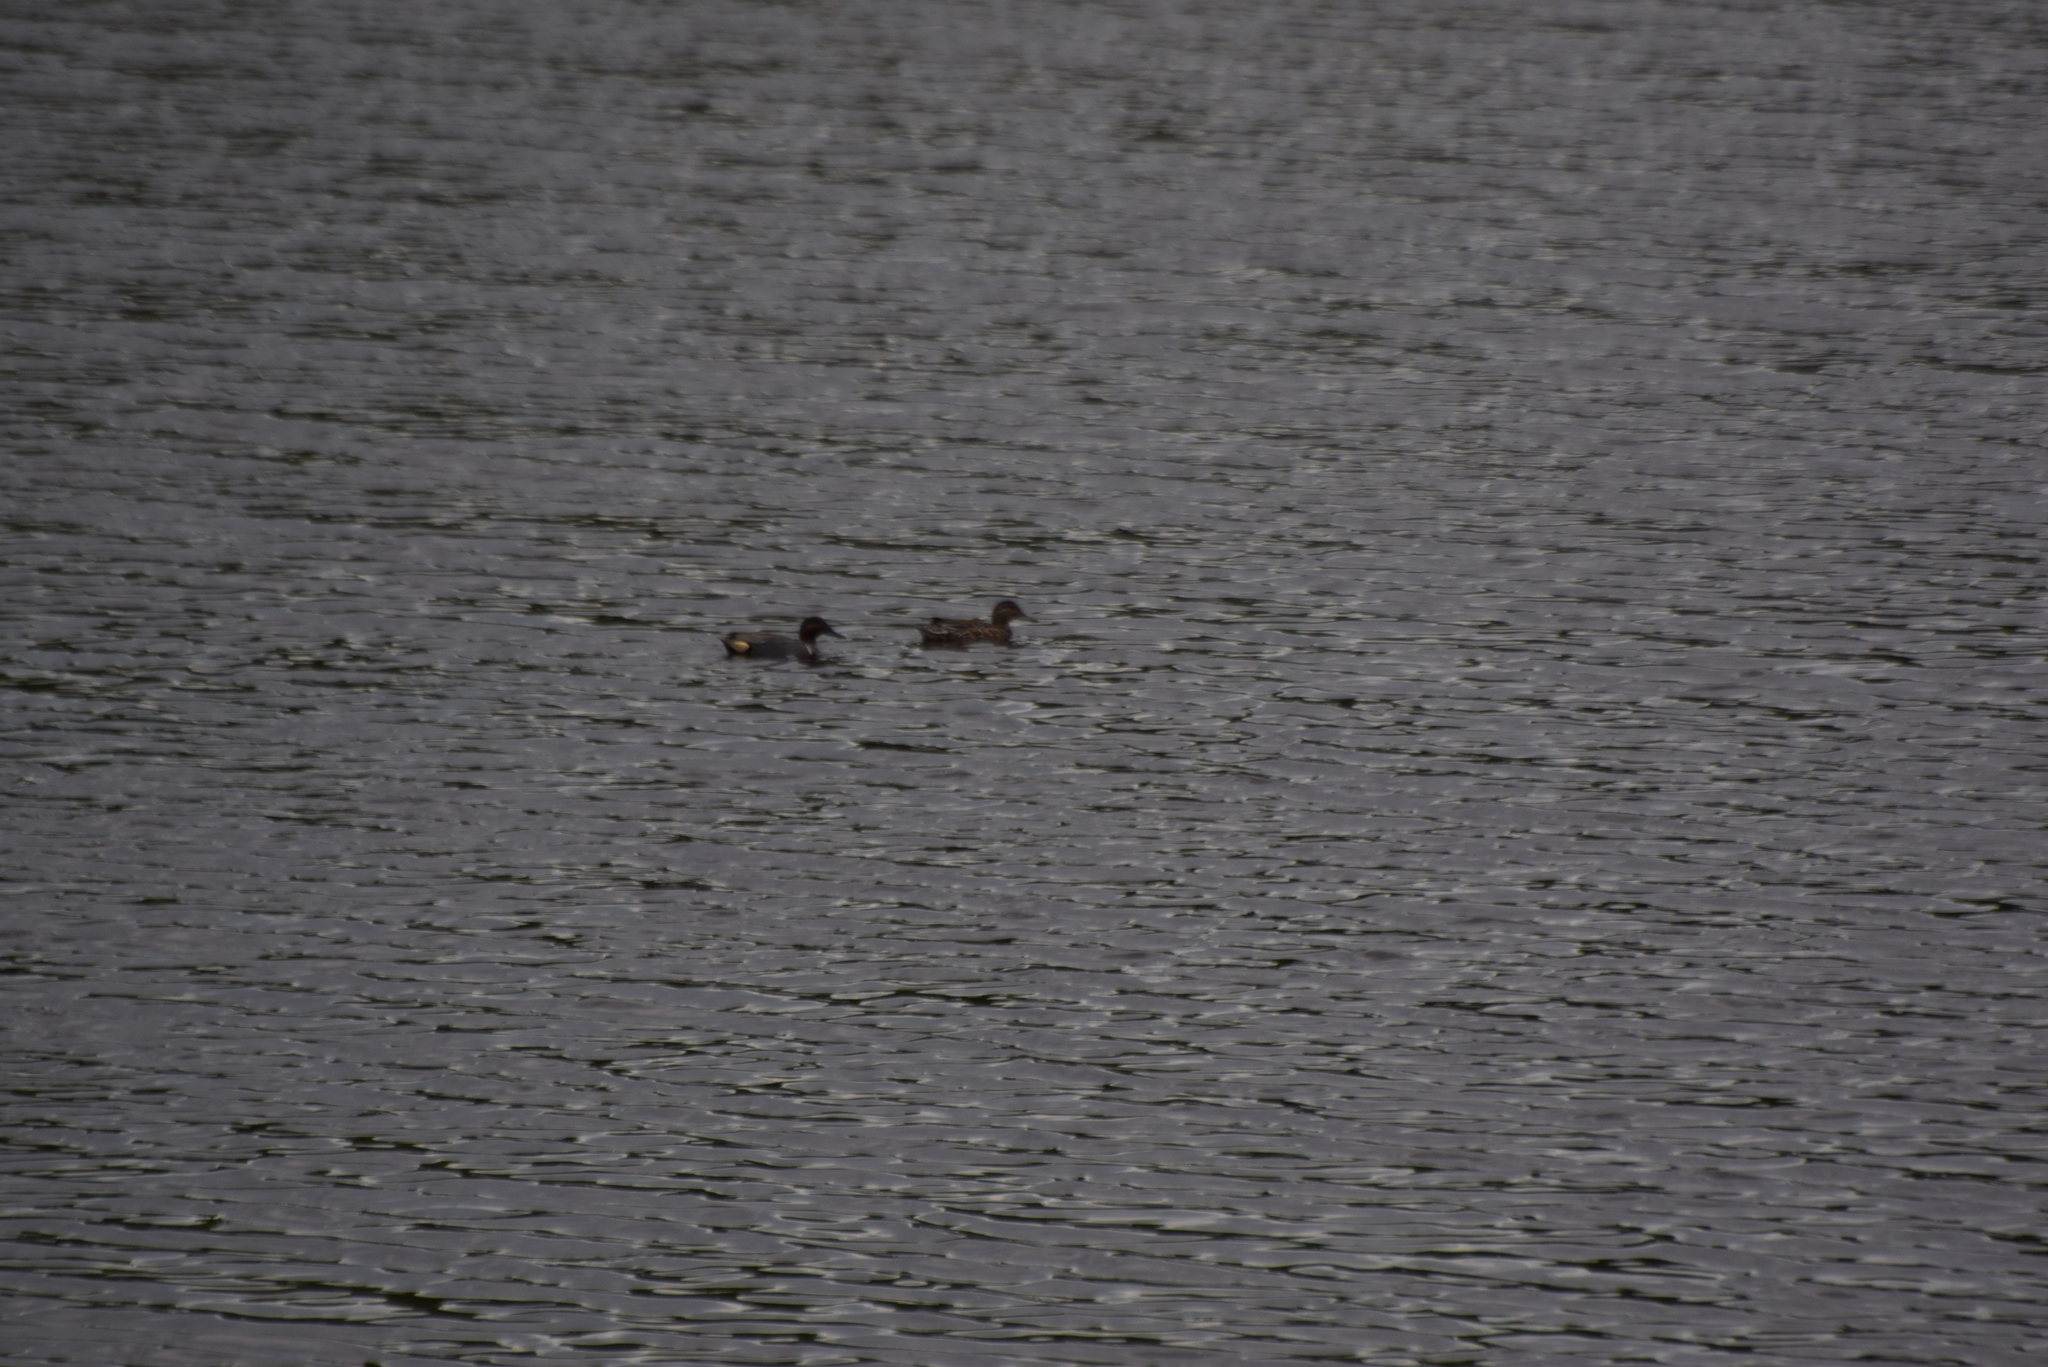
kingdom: Animalia
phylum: Chordata
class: Aves
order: Anseriformes
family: Anatidae
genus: Anas
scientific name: Anas crecca
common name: Eurasian teal
